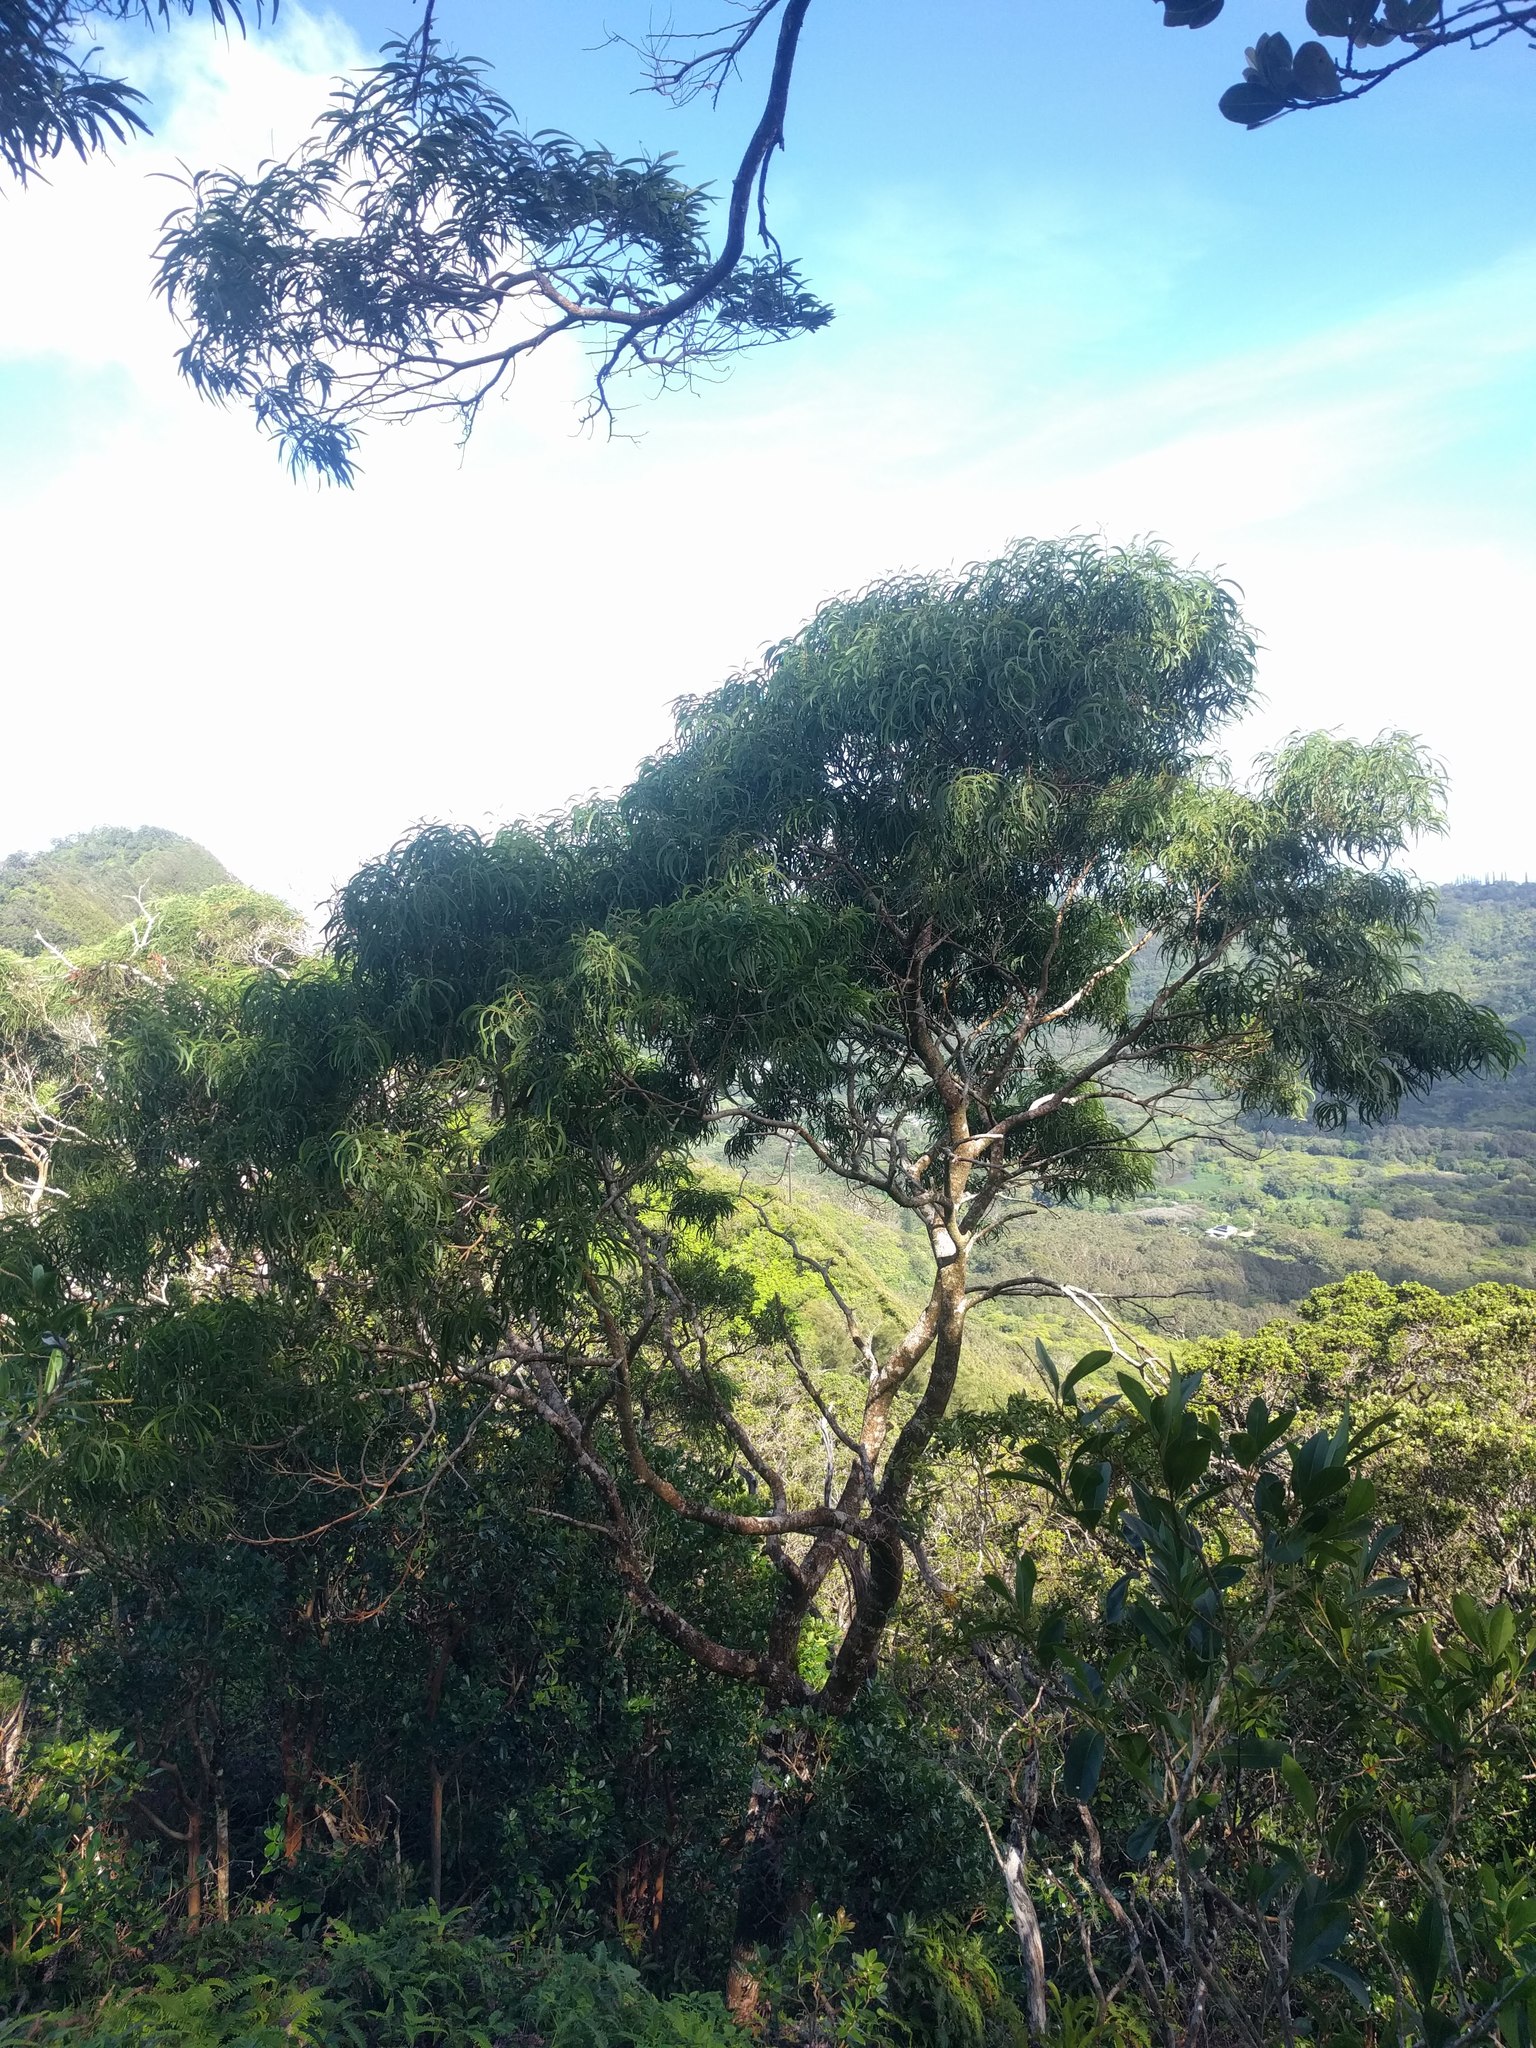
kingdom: Plantae
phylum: Tracheophyta
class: Magnoliopsida
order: Fabales
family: Fabaceae
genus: Acacia
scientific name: Acacia koa
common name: Gray koa
